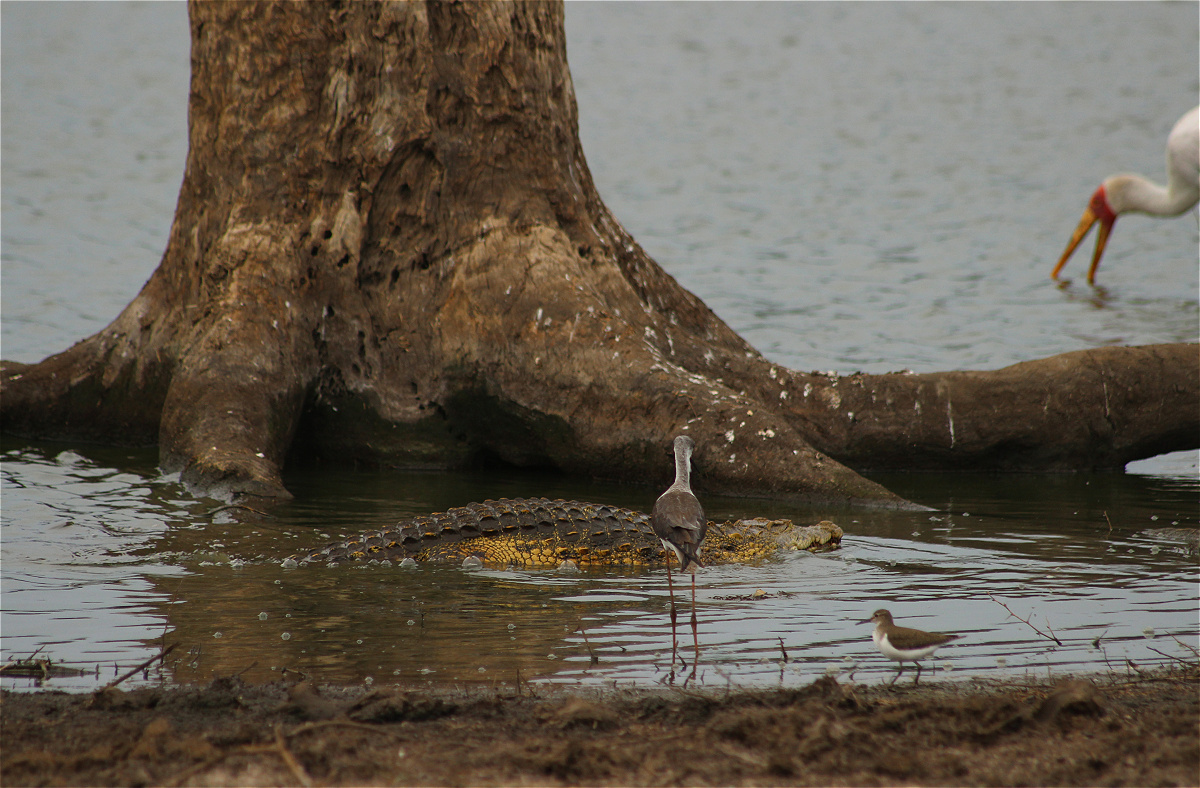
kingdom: Animalia
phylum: Chordata
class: Crocodylia
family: Crocodylidae
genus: Crocodylus
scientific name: Crocodylus niloticus
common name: Nile crocodile
